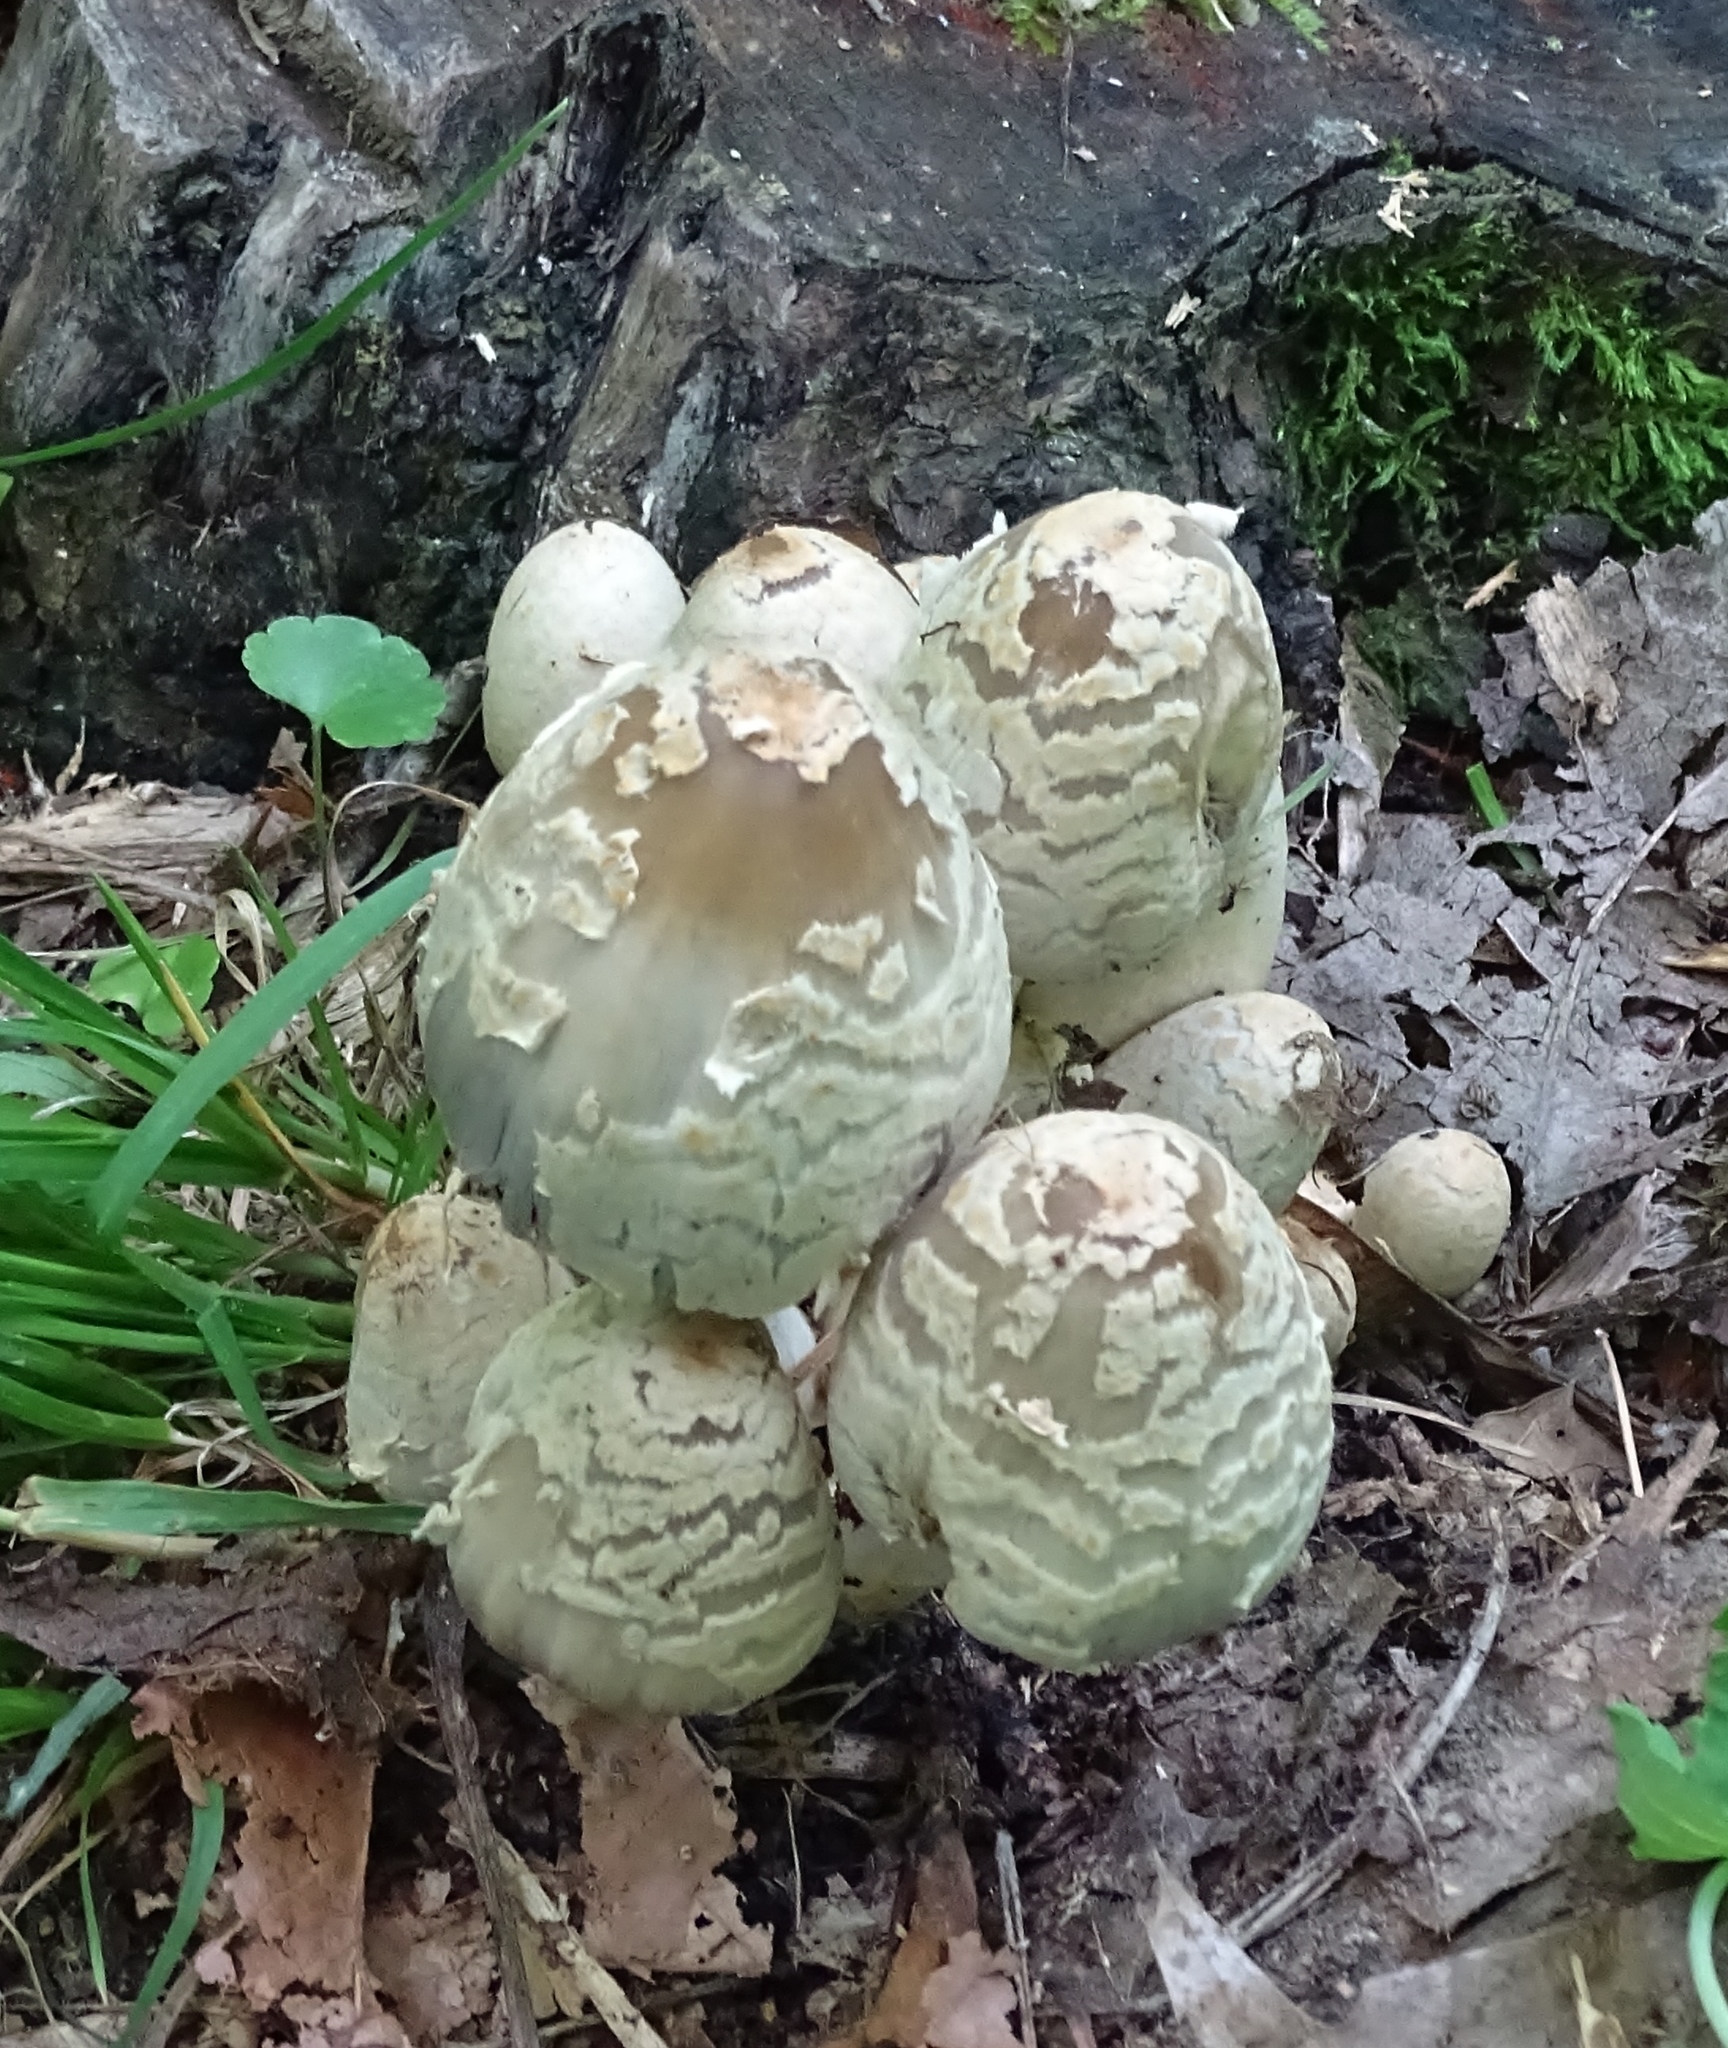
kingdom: Fungi
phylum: Basidiomycota
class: Agaricomycetes
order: Agaricales
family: Psathyrellaceae
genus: Coprinopsis
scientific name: Coprinopsis variegata
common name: Scaly ink cap
